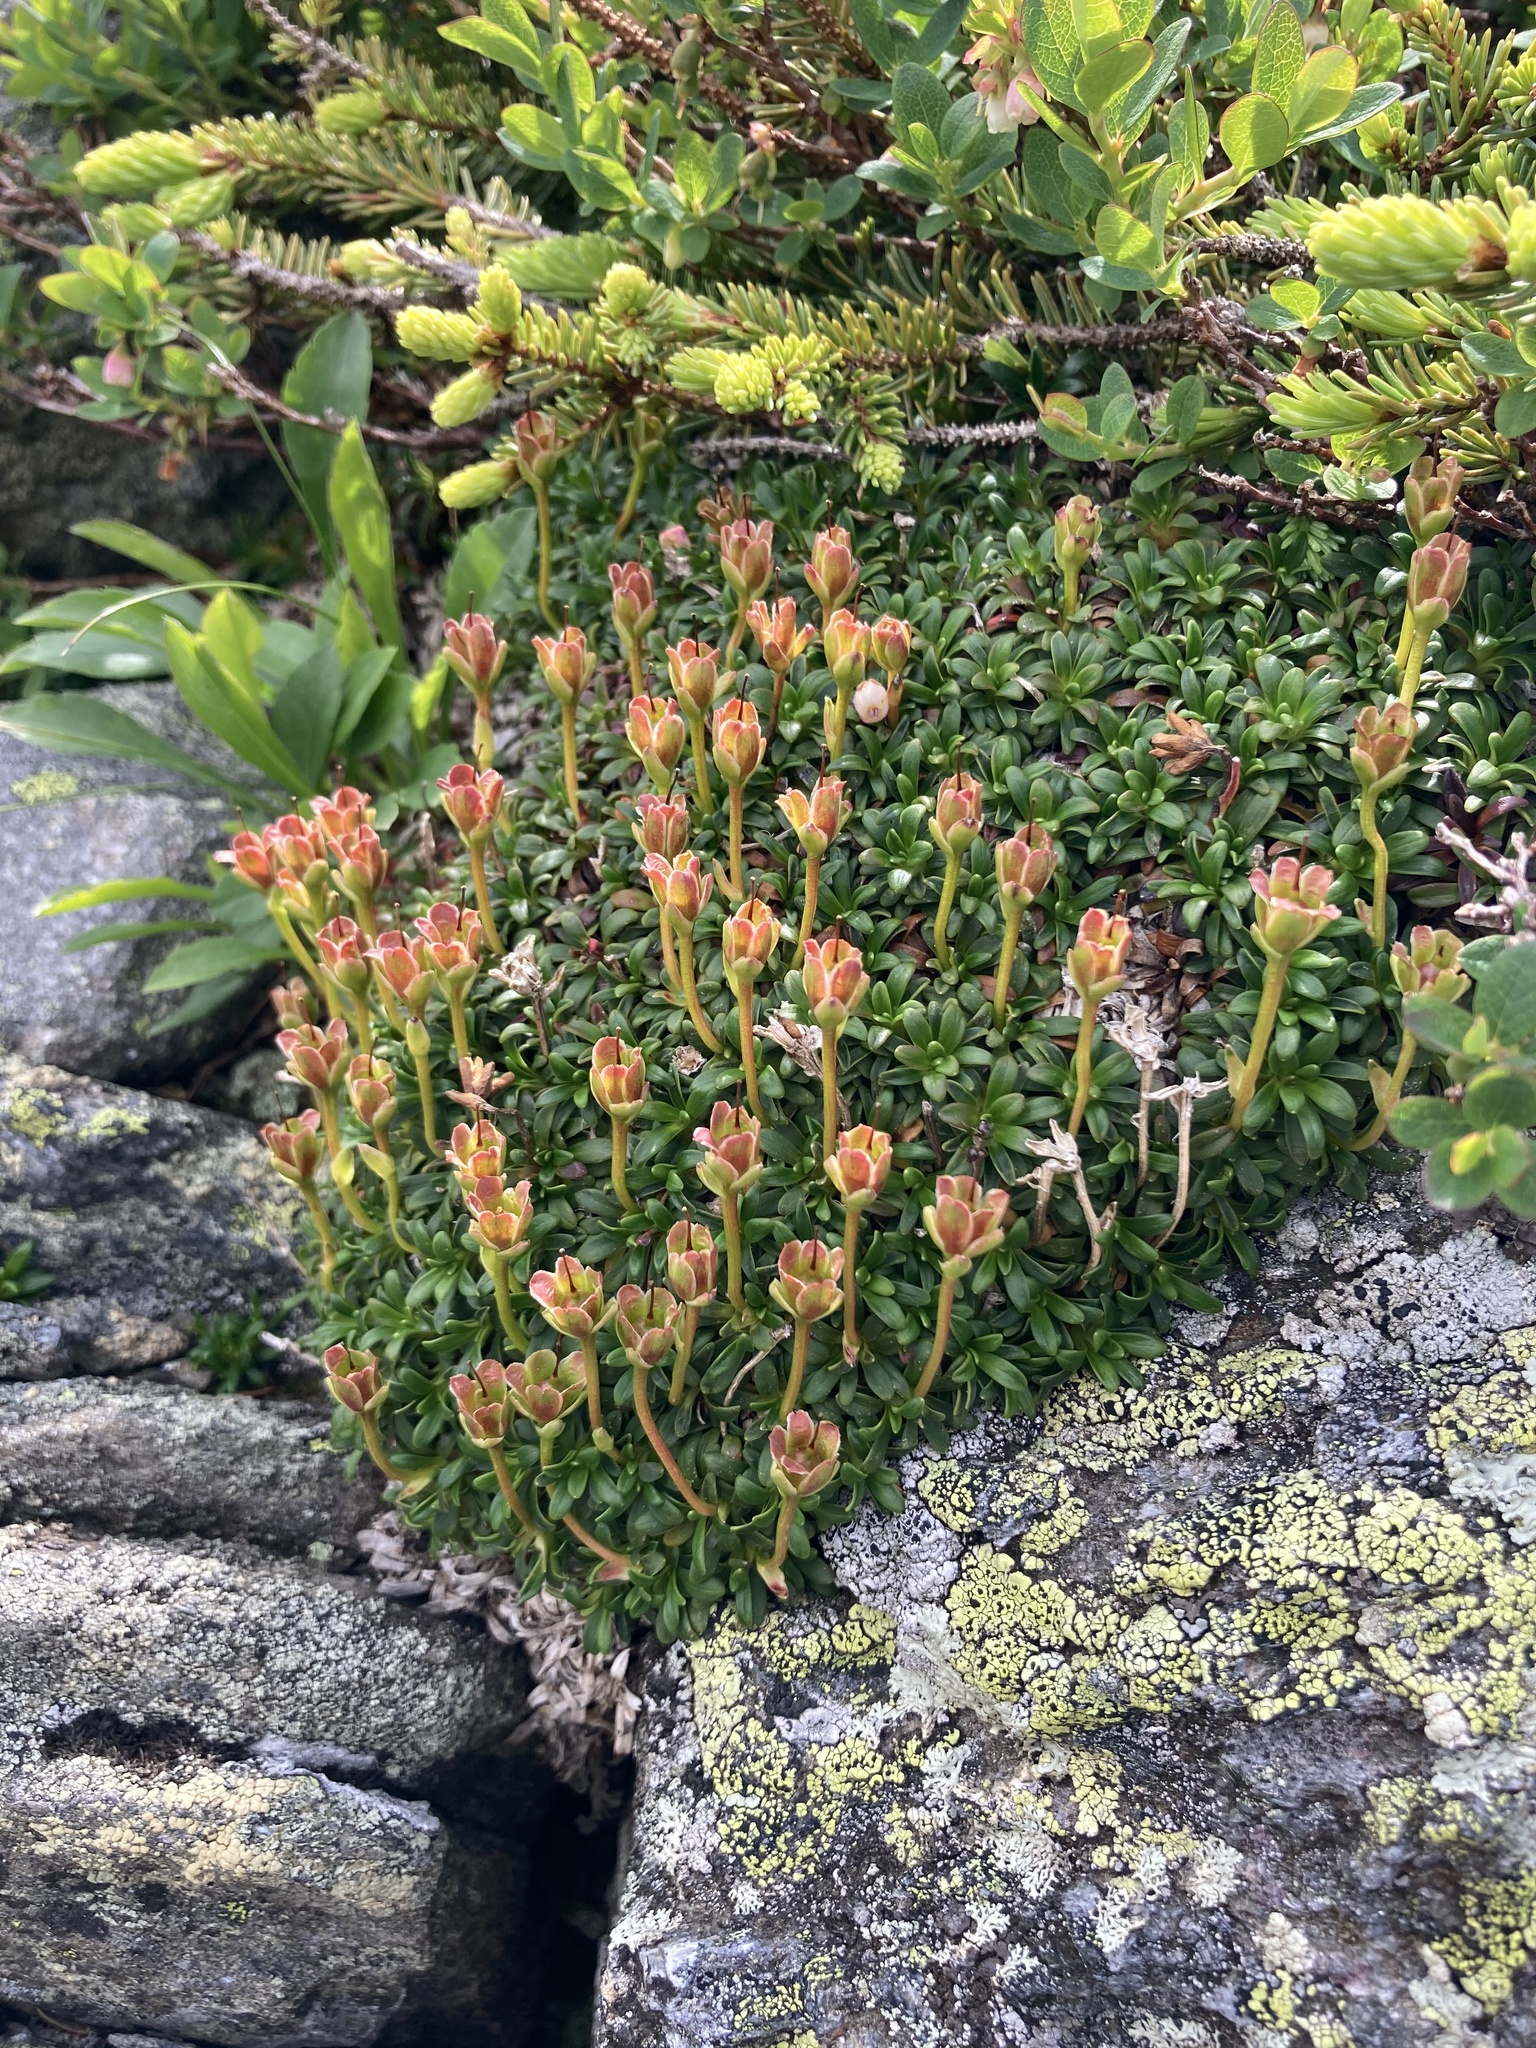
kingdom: Plantae
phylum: Tracheophyta
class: Magnoliopsida
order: Ericales
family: Diapensiaceae
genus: Diapensia
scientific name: Diapensia lapponica
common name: Diapensia
